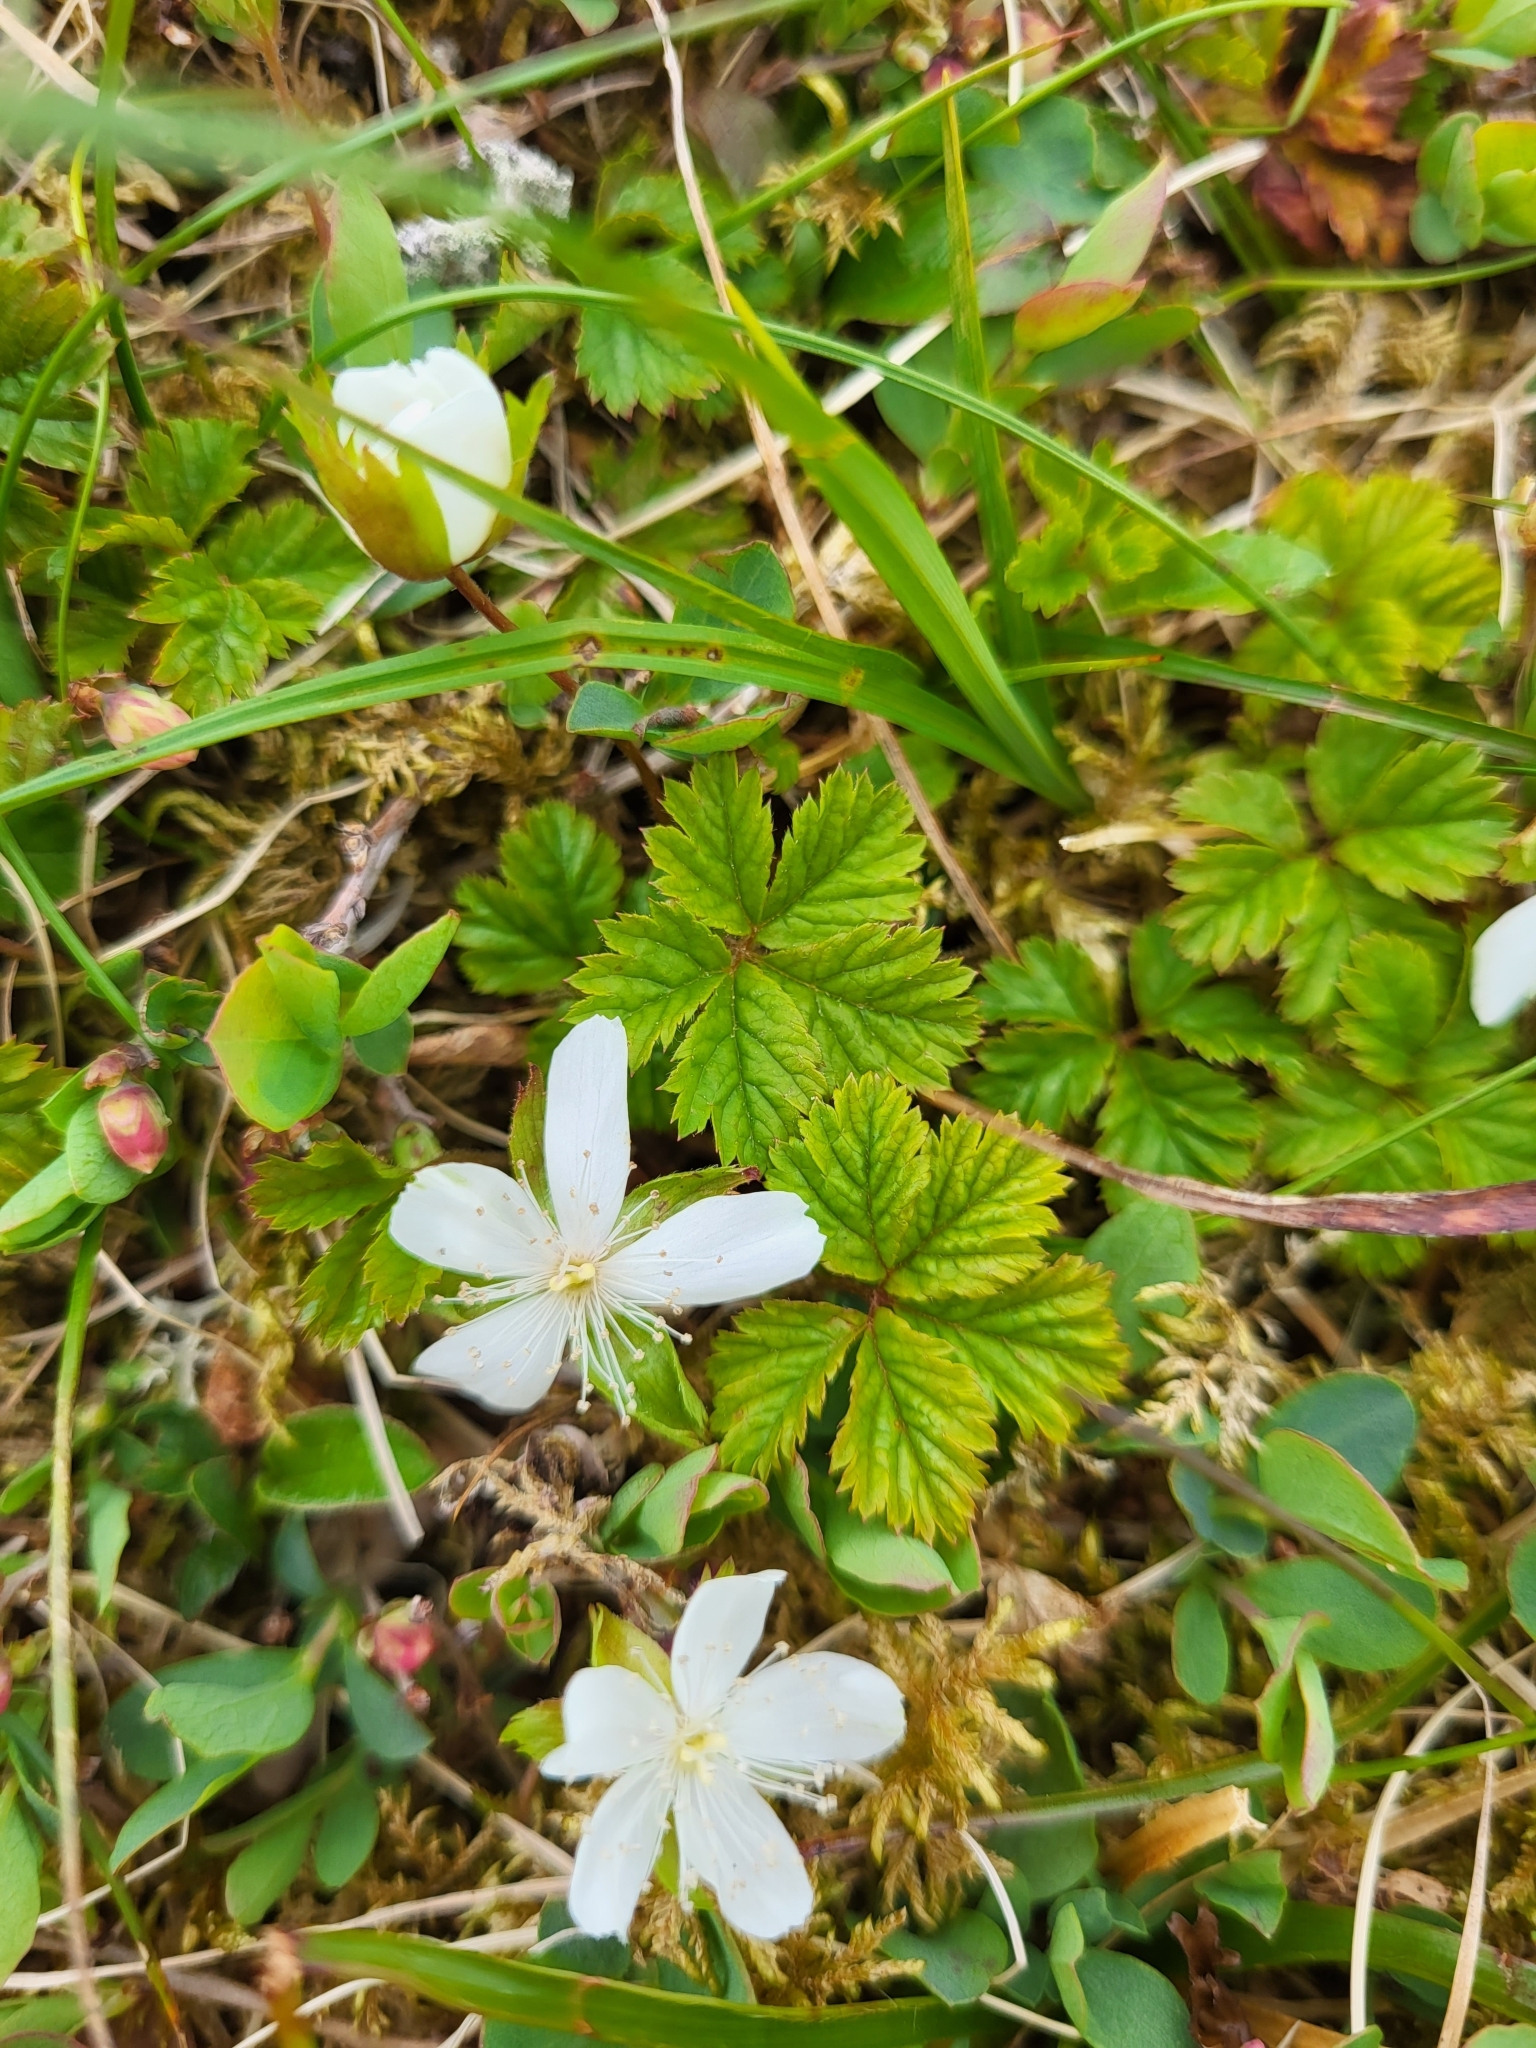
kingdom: Plantae
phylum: Tracheophyta
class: Magnoliopsida
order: Rosales
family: Rosaceae
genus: Rubus
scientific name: Rubus pedatus
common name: Creeping raspberry
